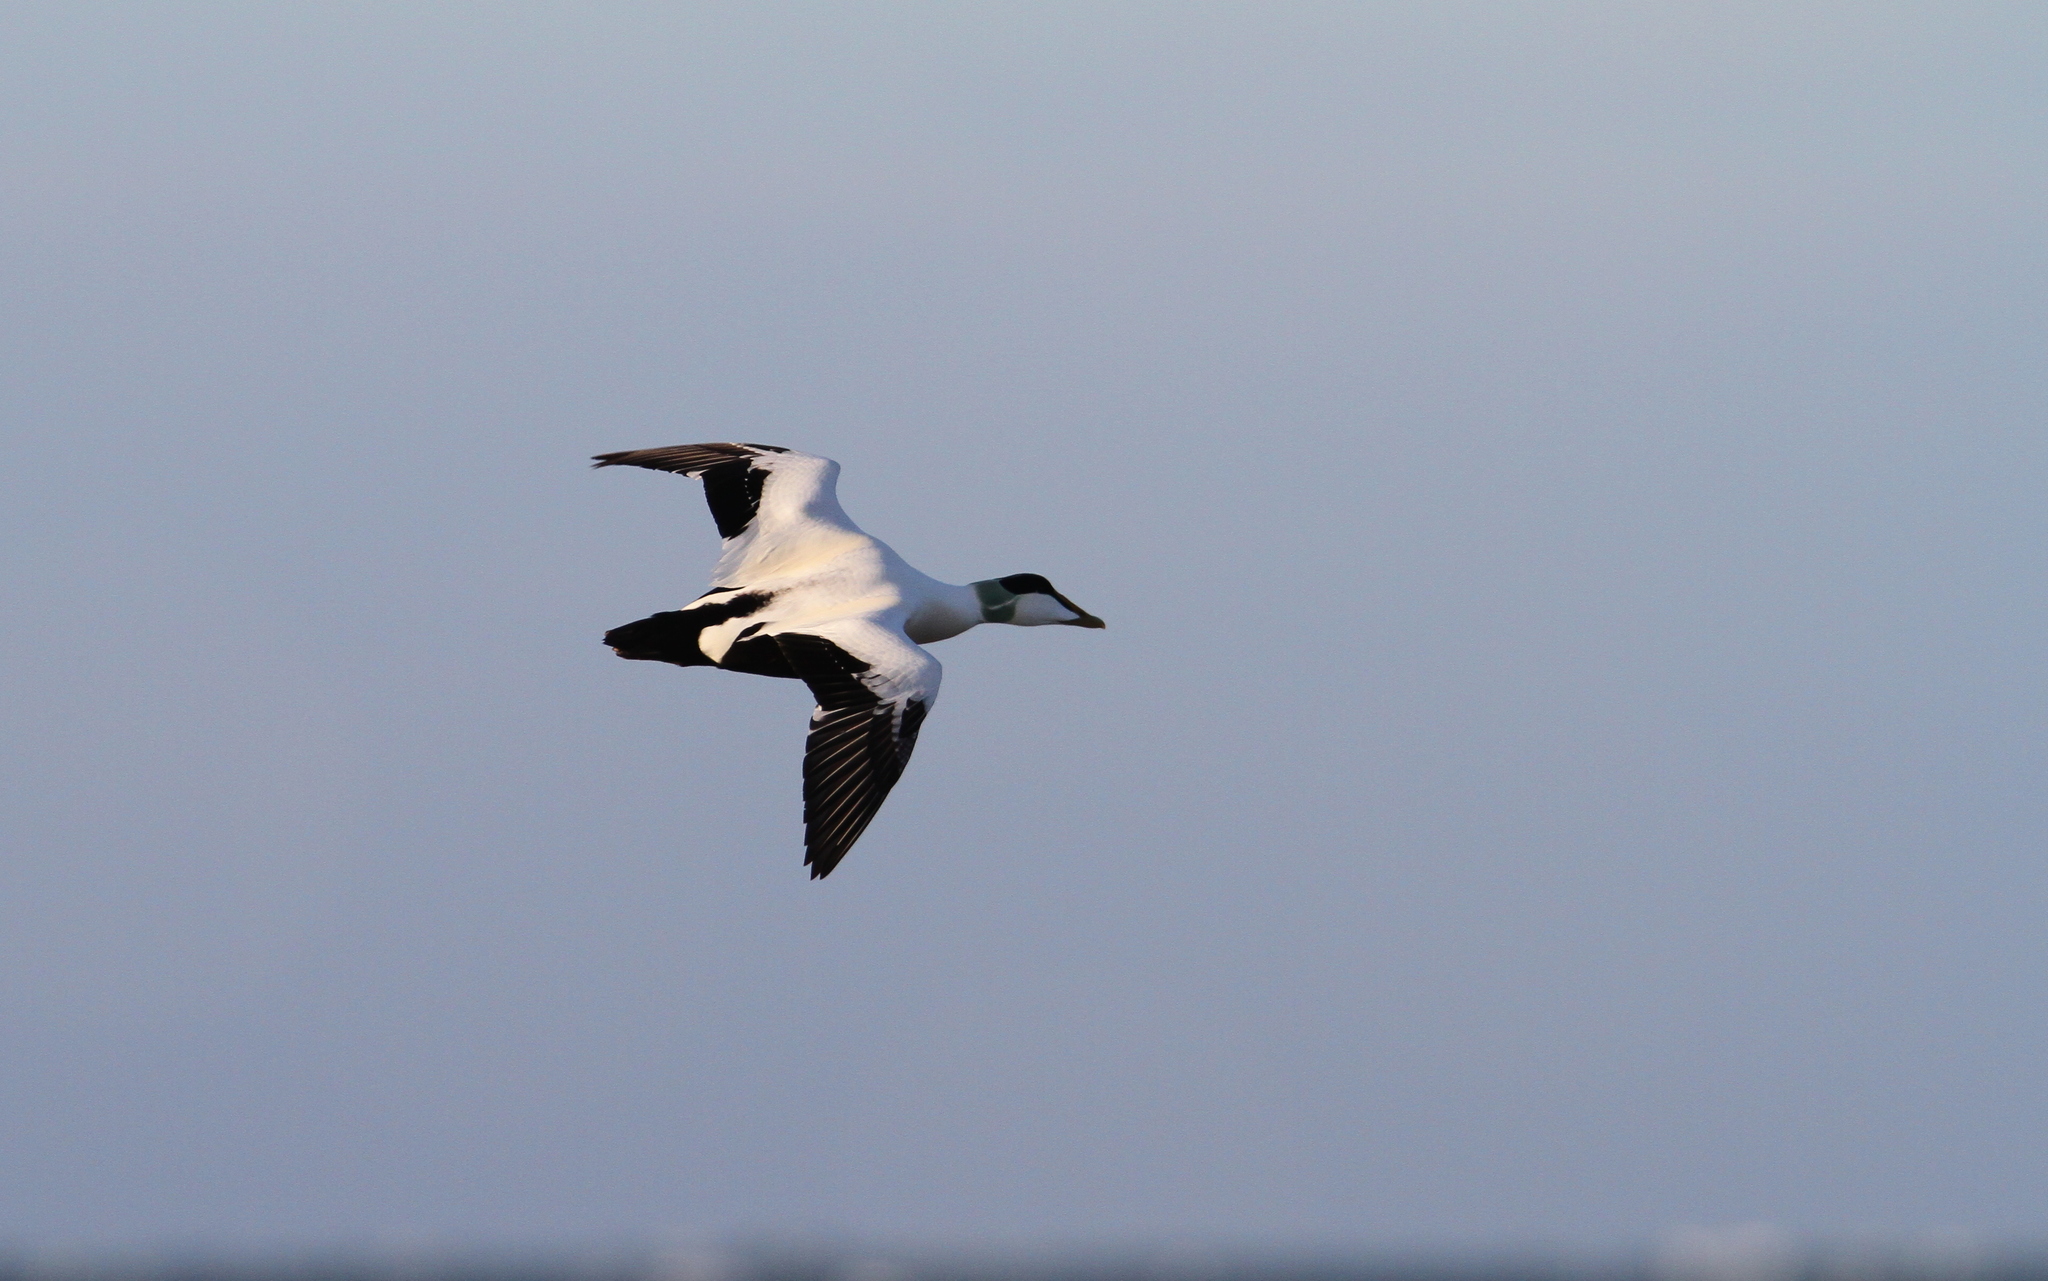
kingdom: Animalia
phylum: Chordata
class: Aves
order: Anseriformes
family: Anatidae
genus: Somateria
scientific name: Somateria mollissima
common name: Common eider
